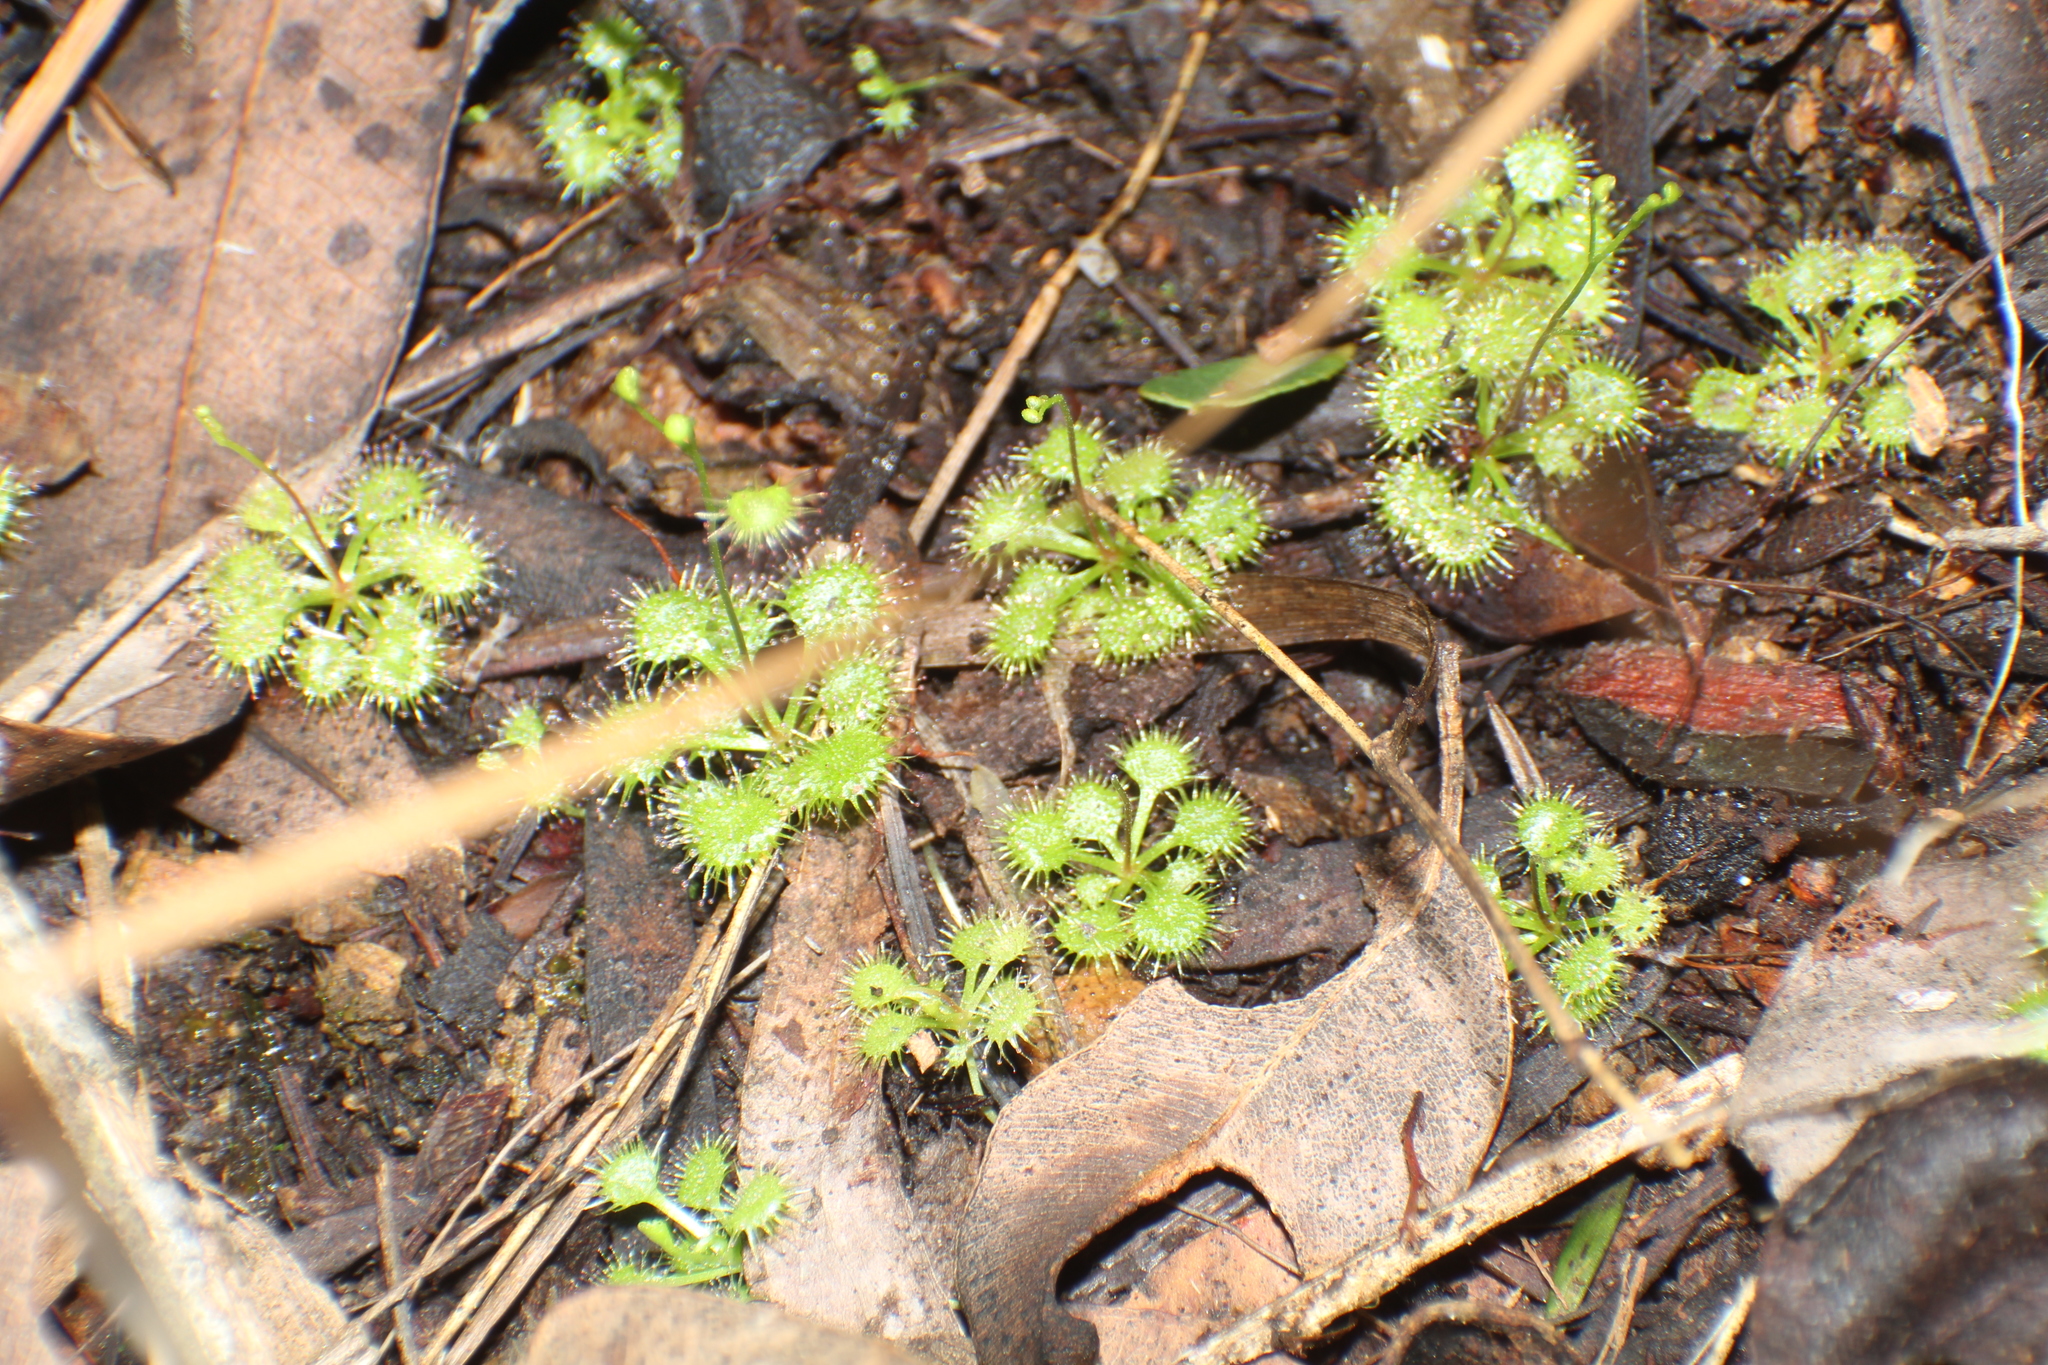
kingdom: Plantae
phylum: Tracheophyta
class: Magnoliopsida
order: Caryophyllales
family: Droseraceae
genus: Drosera
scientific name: Drosera modesta
